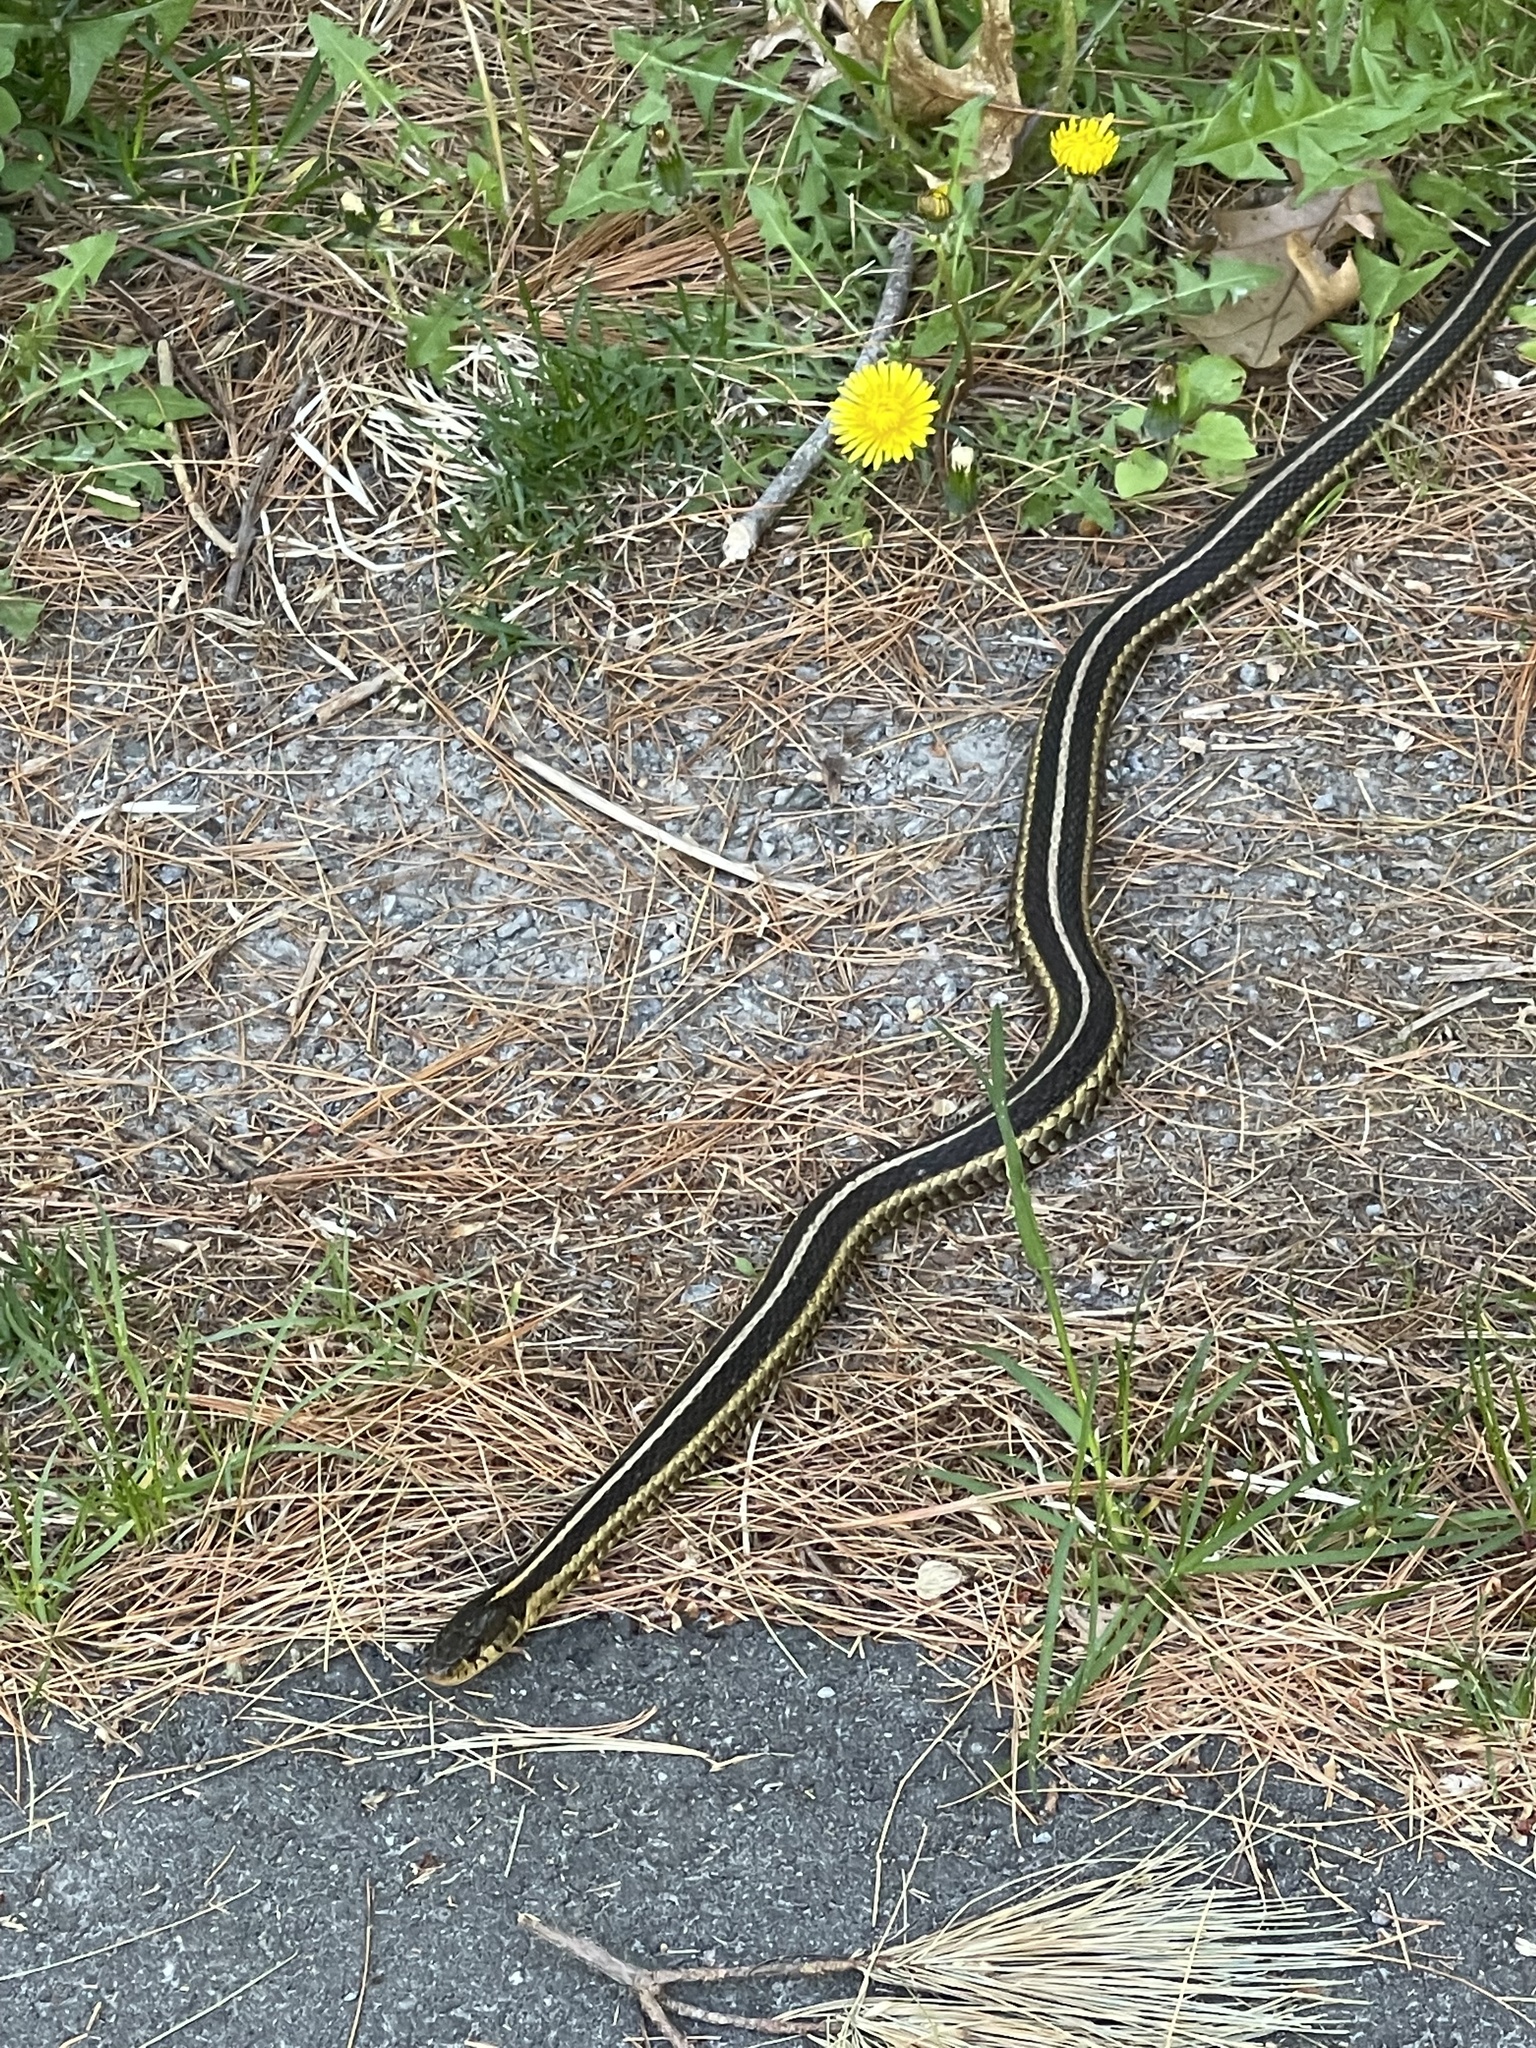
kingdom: Animalia
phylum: Chordata
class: Squamata
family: Colubridae
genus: Thamnophis
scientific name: Thamnophis sirtalis
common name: Common garter snake
